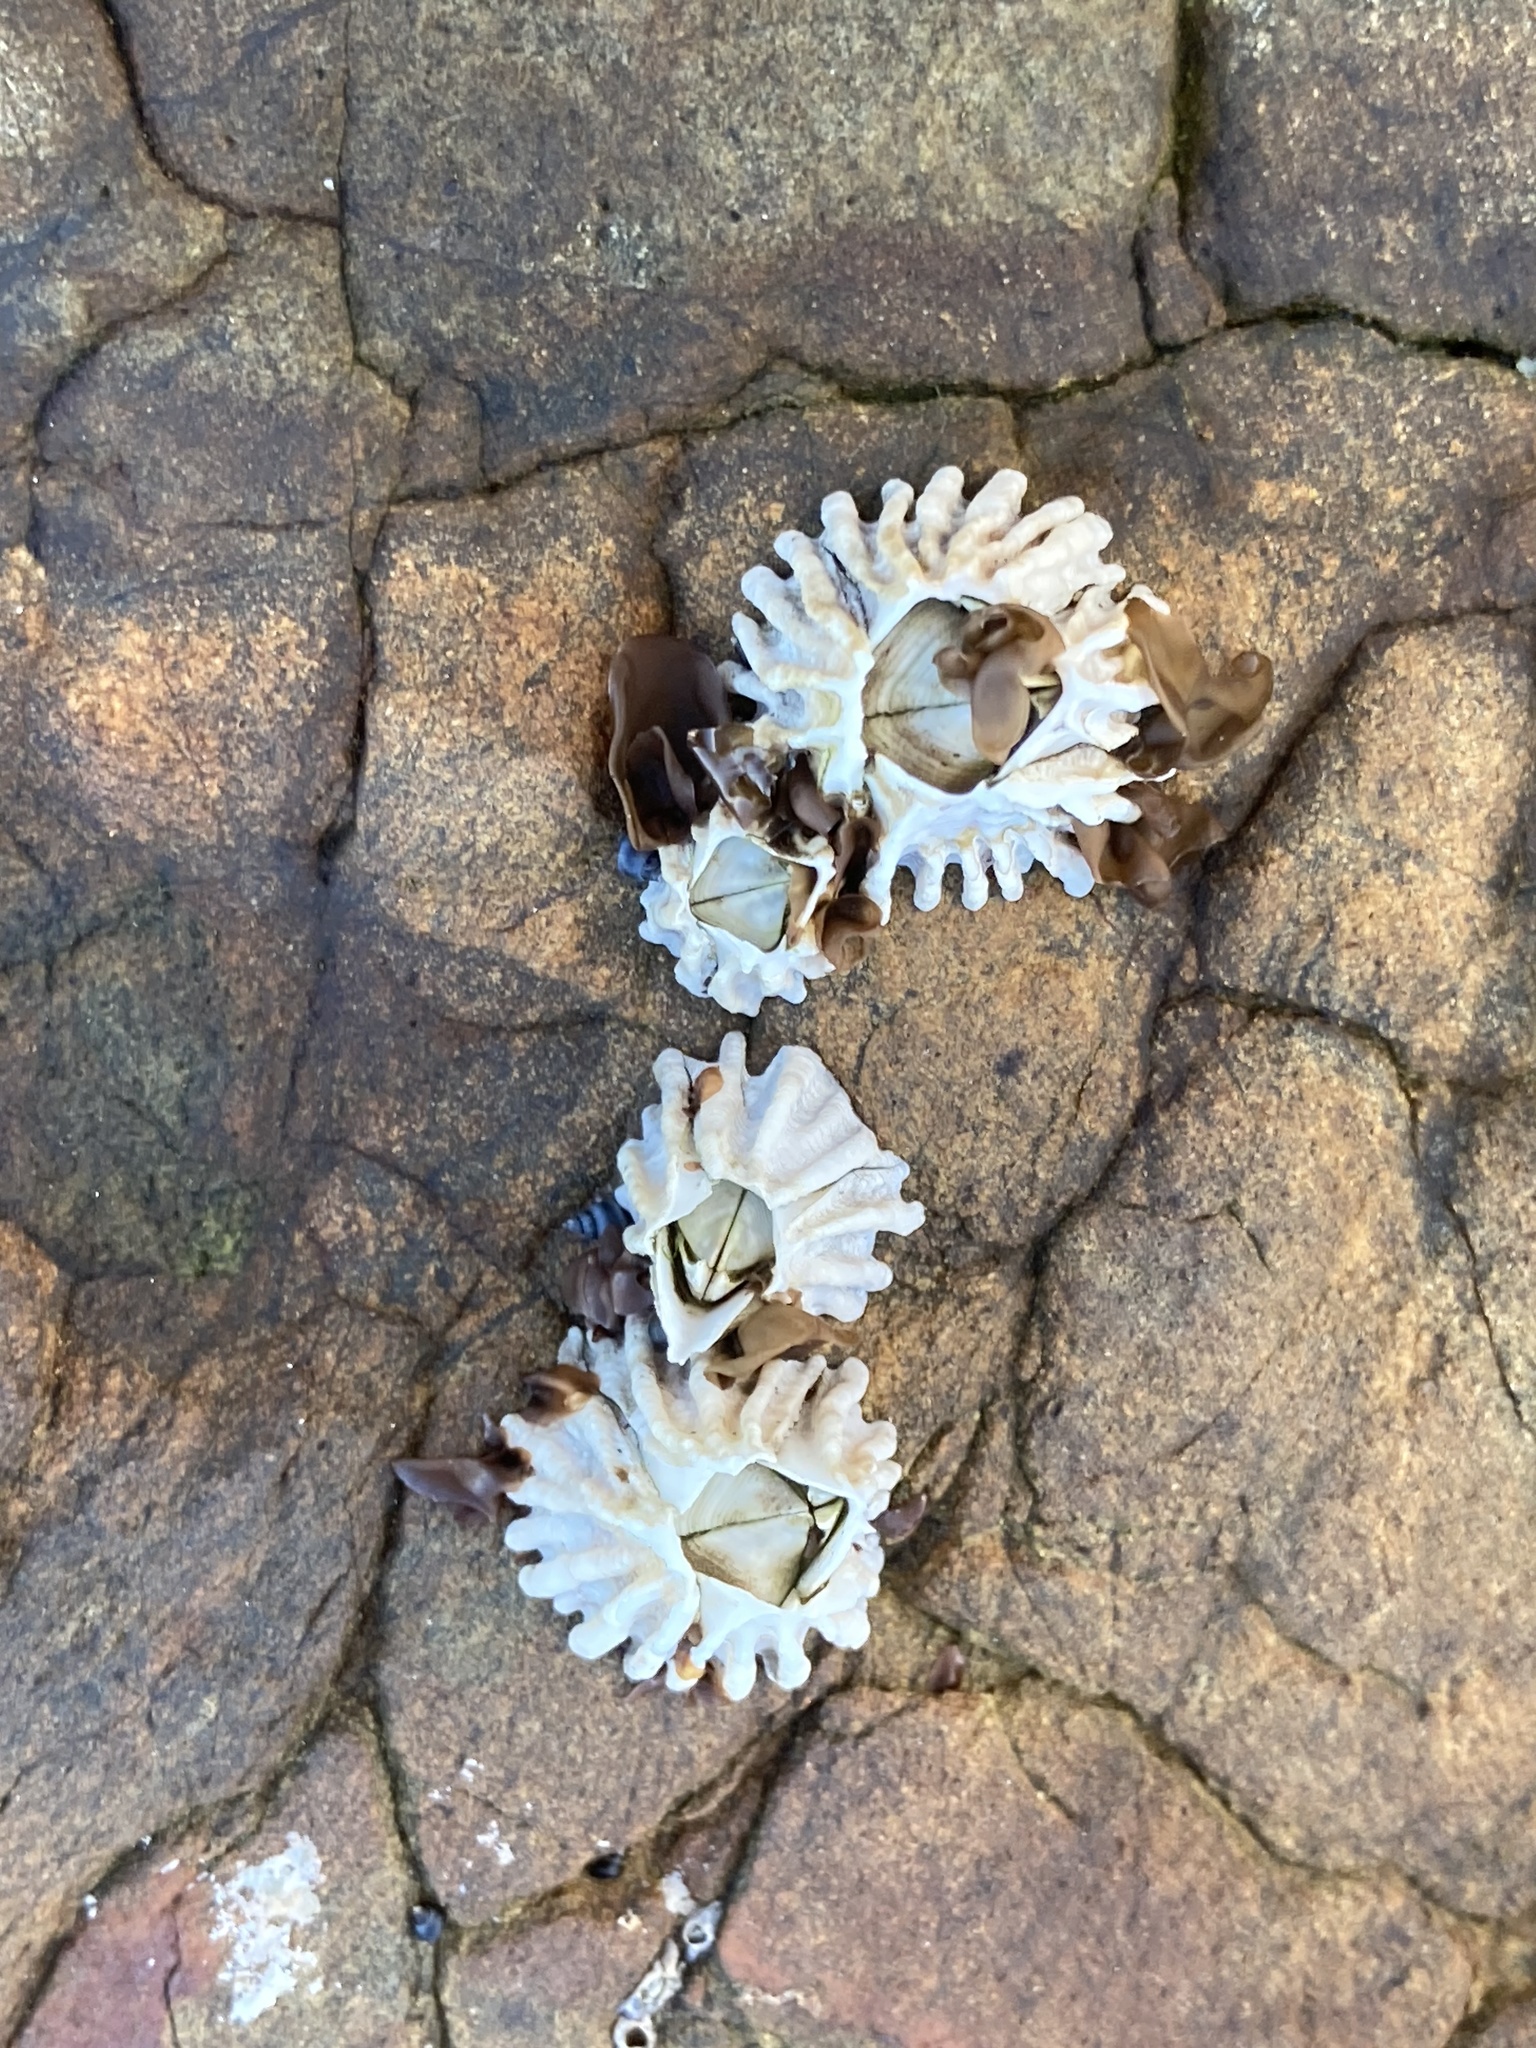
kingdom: Animalia
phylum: Arthropoda
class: Maxillopoda
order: Sessilia
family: Tetraclitidae
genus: Epopella
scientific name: Epopella plicata
